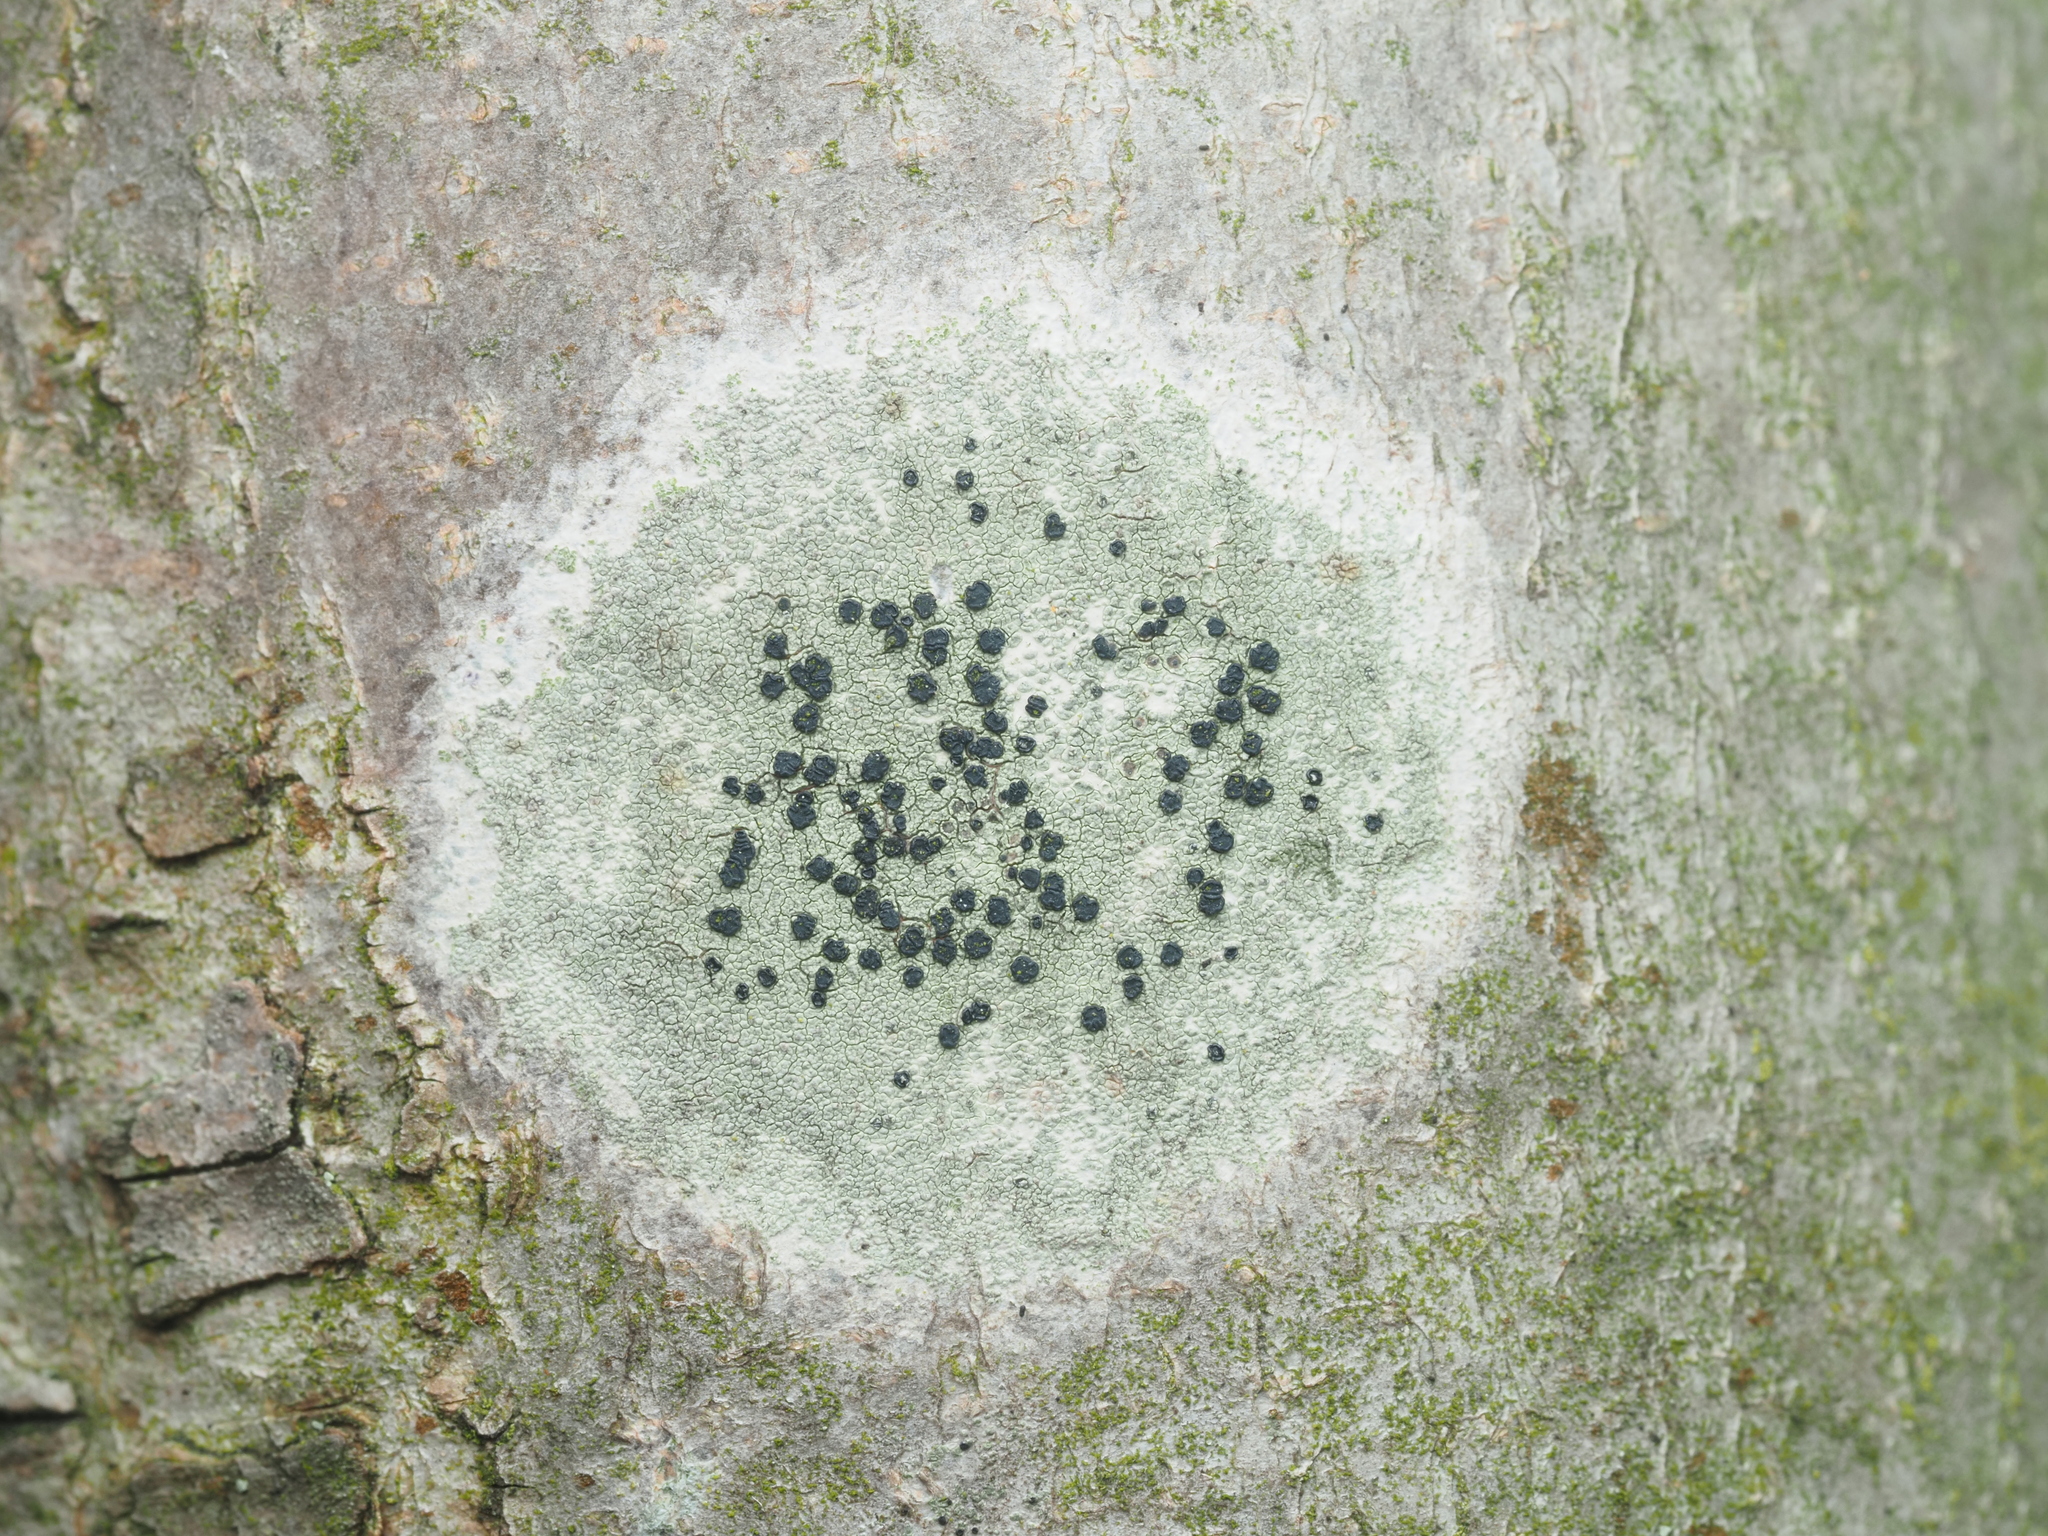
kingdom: Fungi
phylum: Ascomycota
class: Lecanoromycetes
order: Lecanorales
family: Lecanoraceae
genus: Lecidella
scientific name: Lecidella elaeochroma
